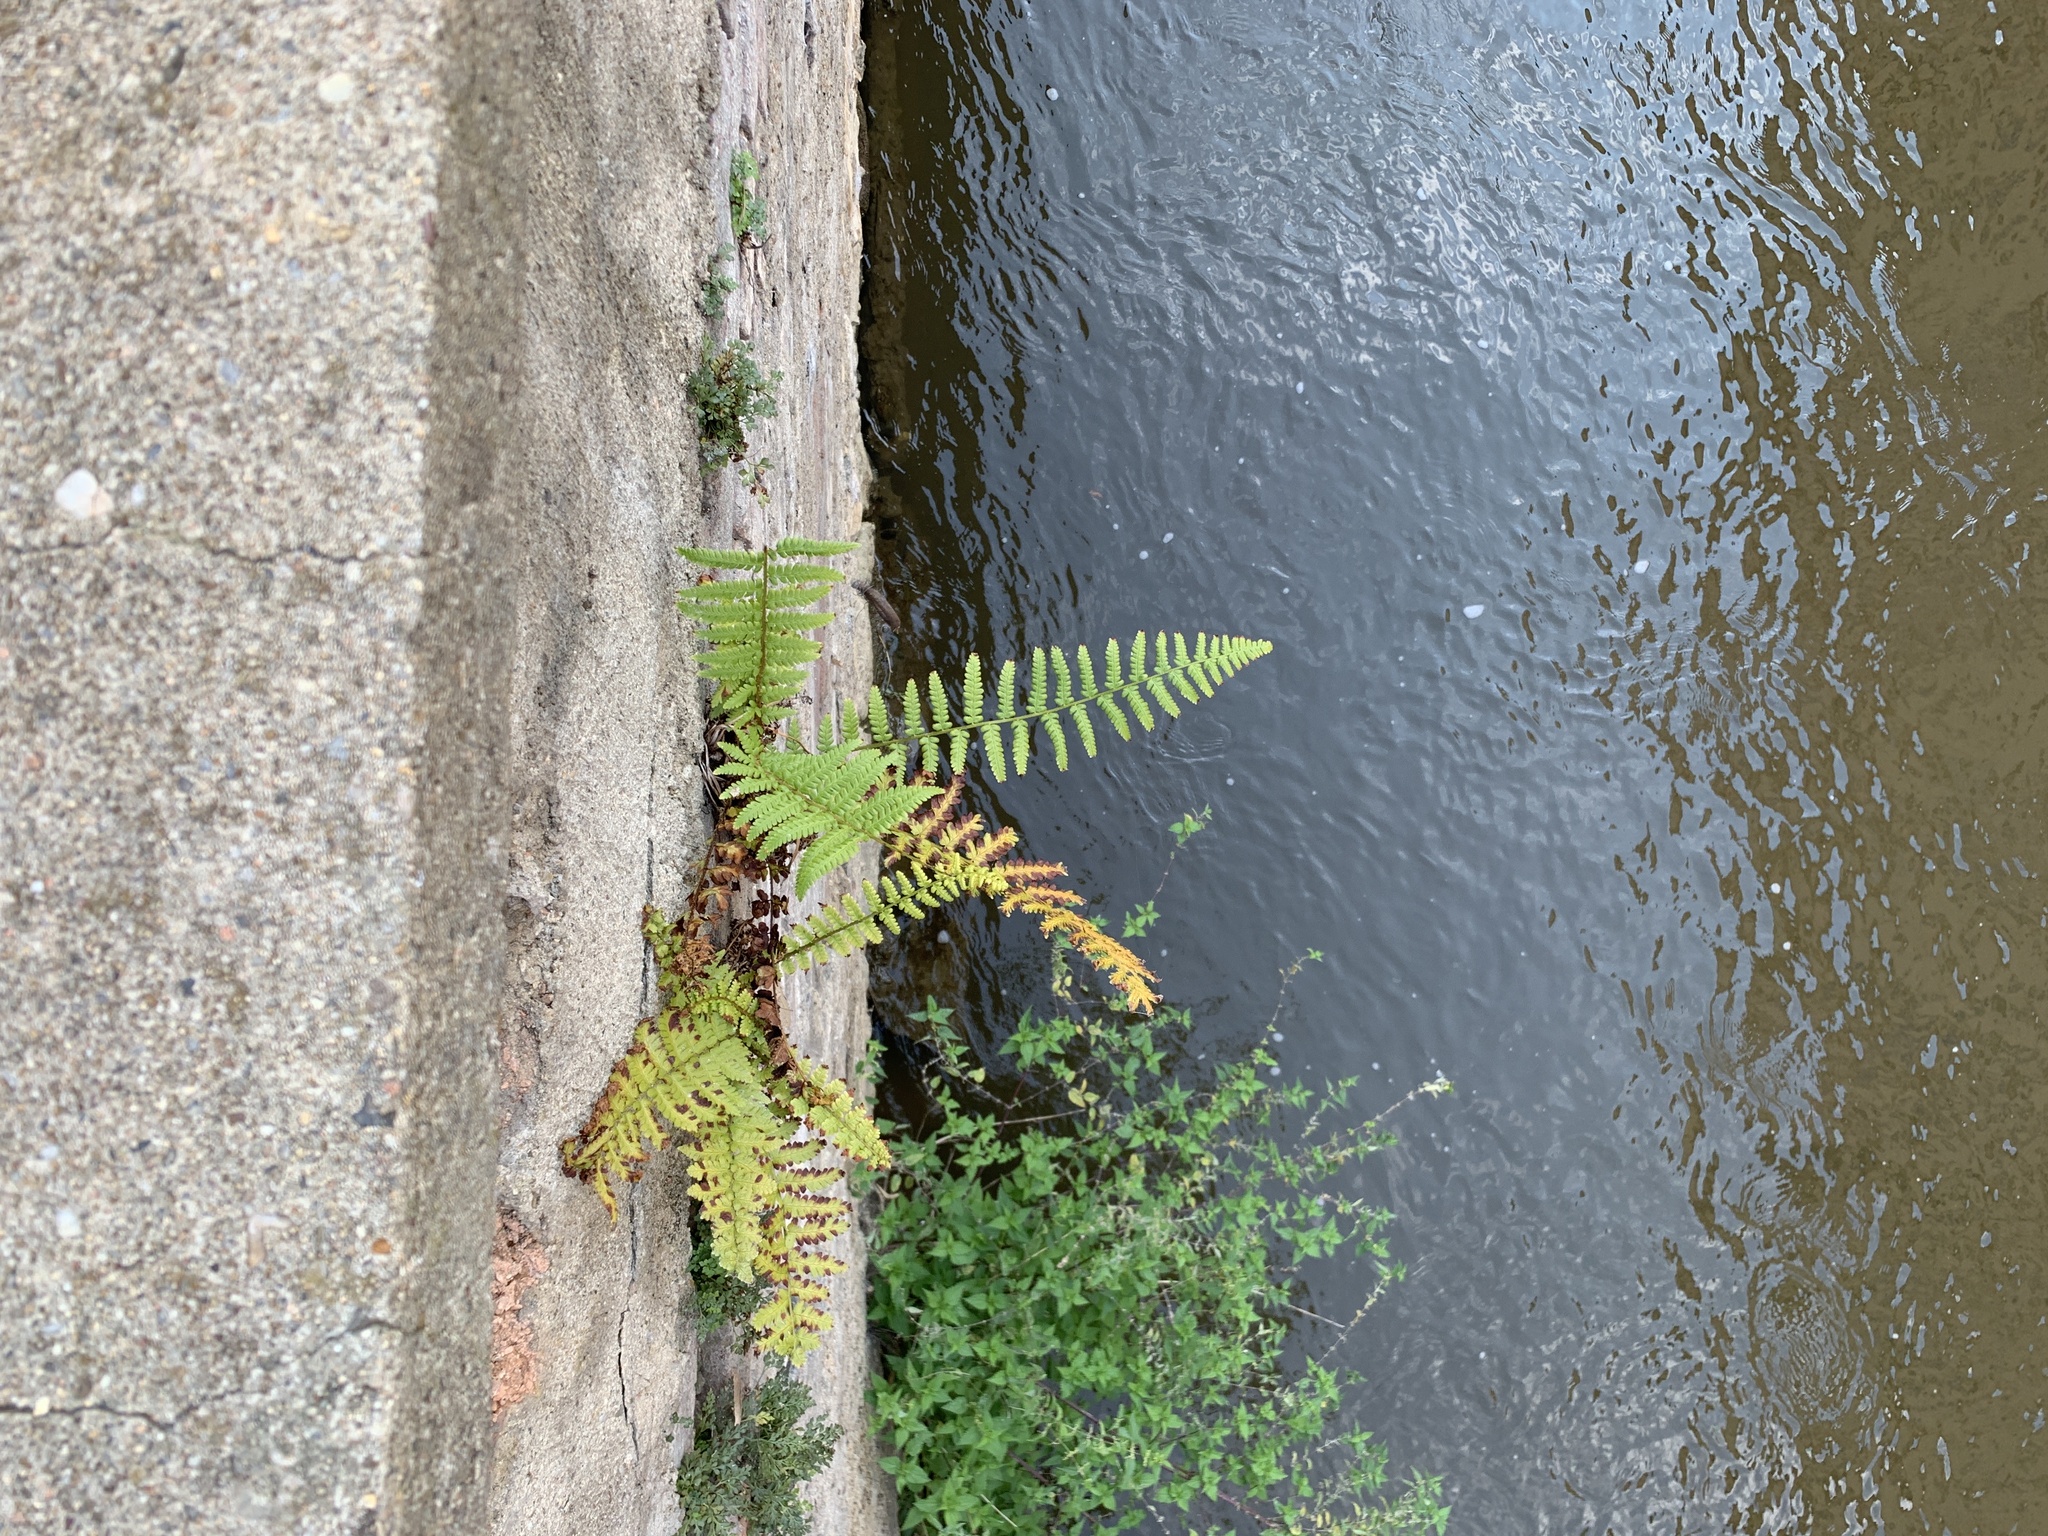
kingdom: Plantae
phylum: Tracheophyta
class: Polypodiopsida
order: Polypodiales
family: Dryopteridaceae
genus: Dryopteris
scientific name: Dryopteris filix-mas
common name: Male fern
